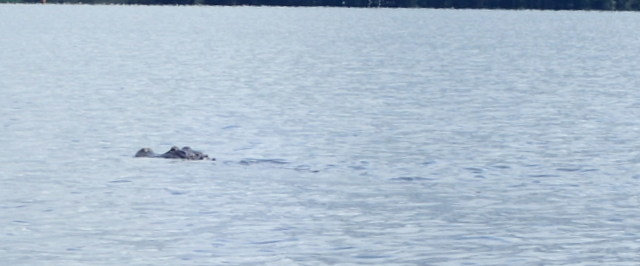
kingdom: Animalia
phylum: Chordata
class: Crocodylia
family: Alligatoridae
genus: Alligator
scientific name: Alligator mississippiensis
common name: American alligator
